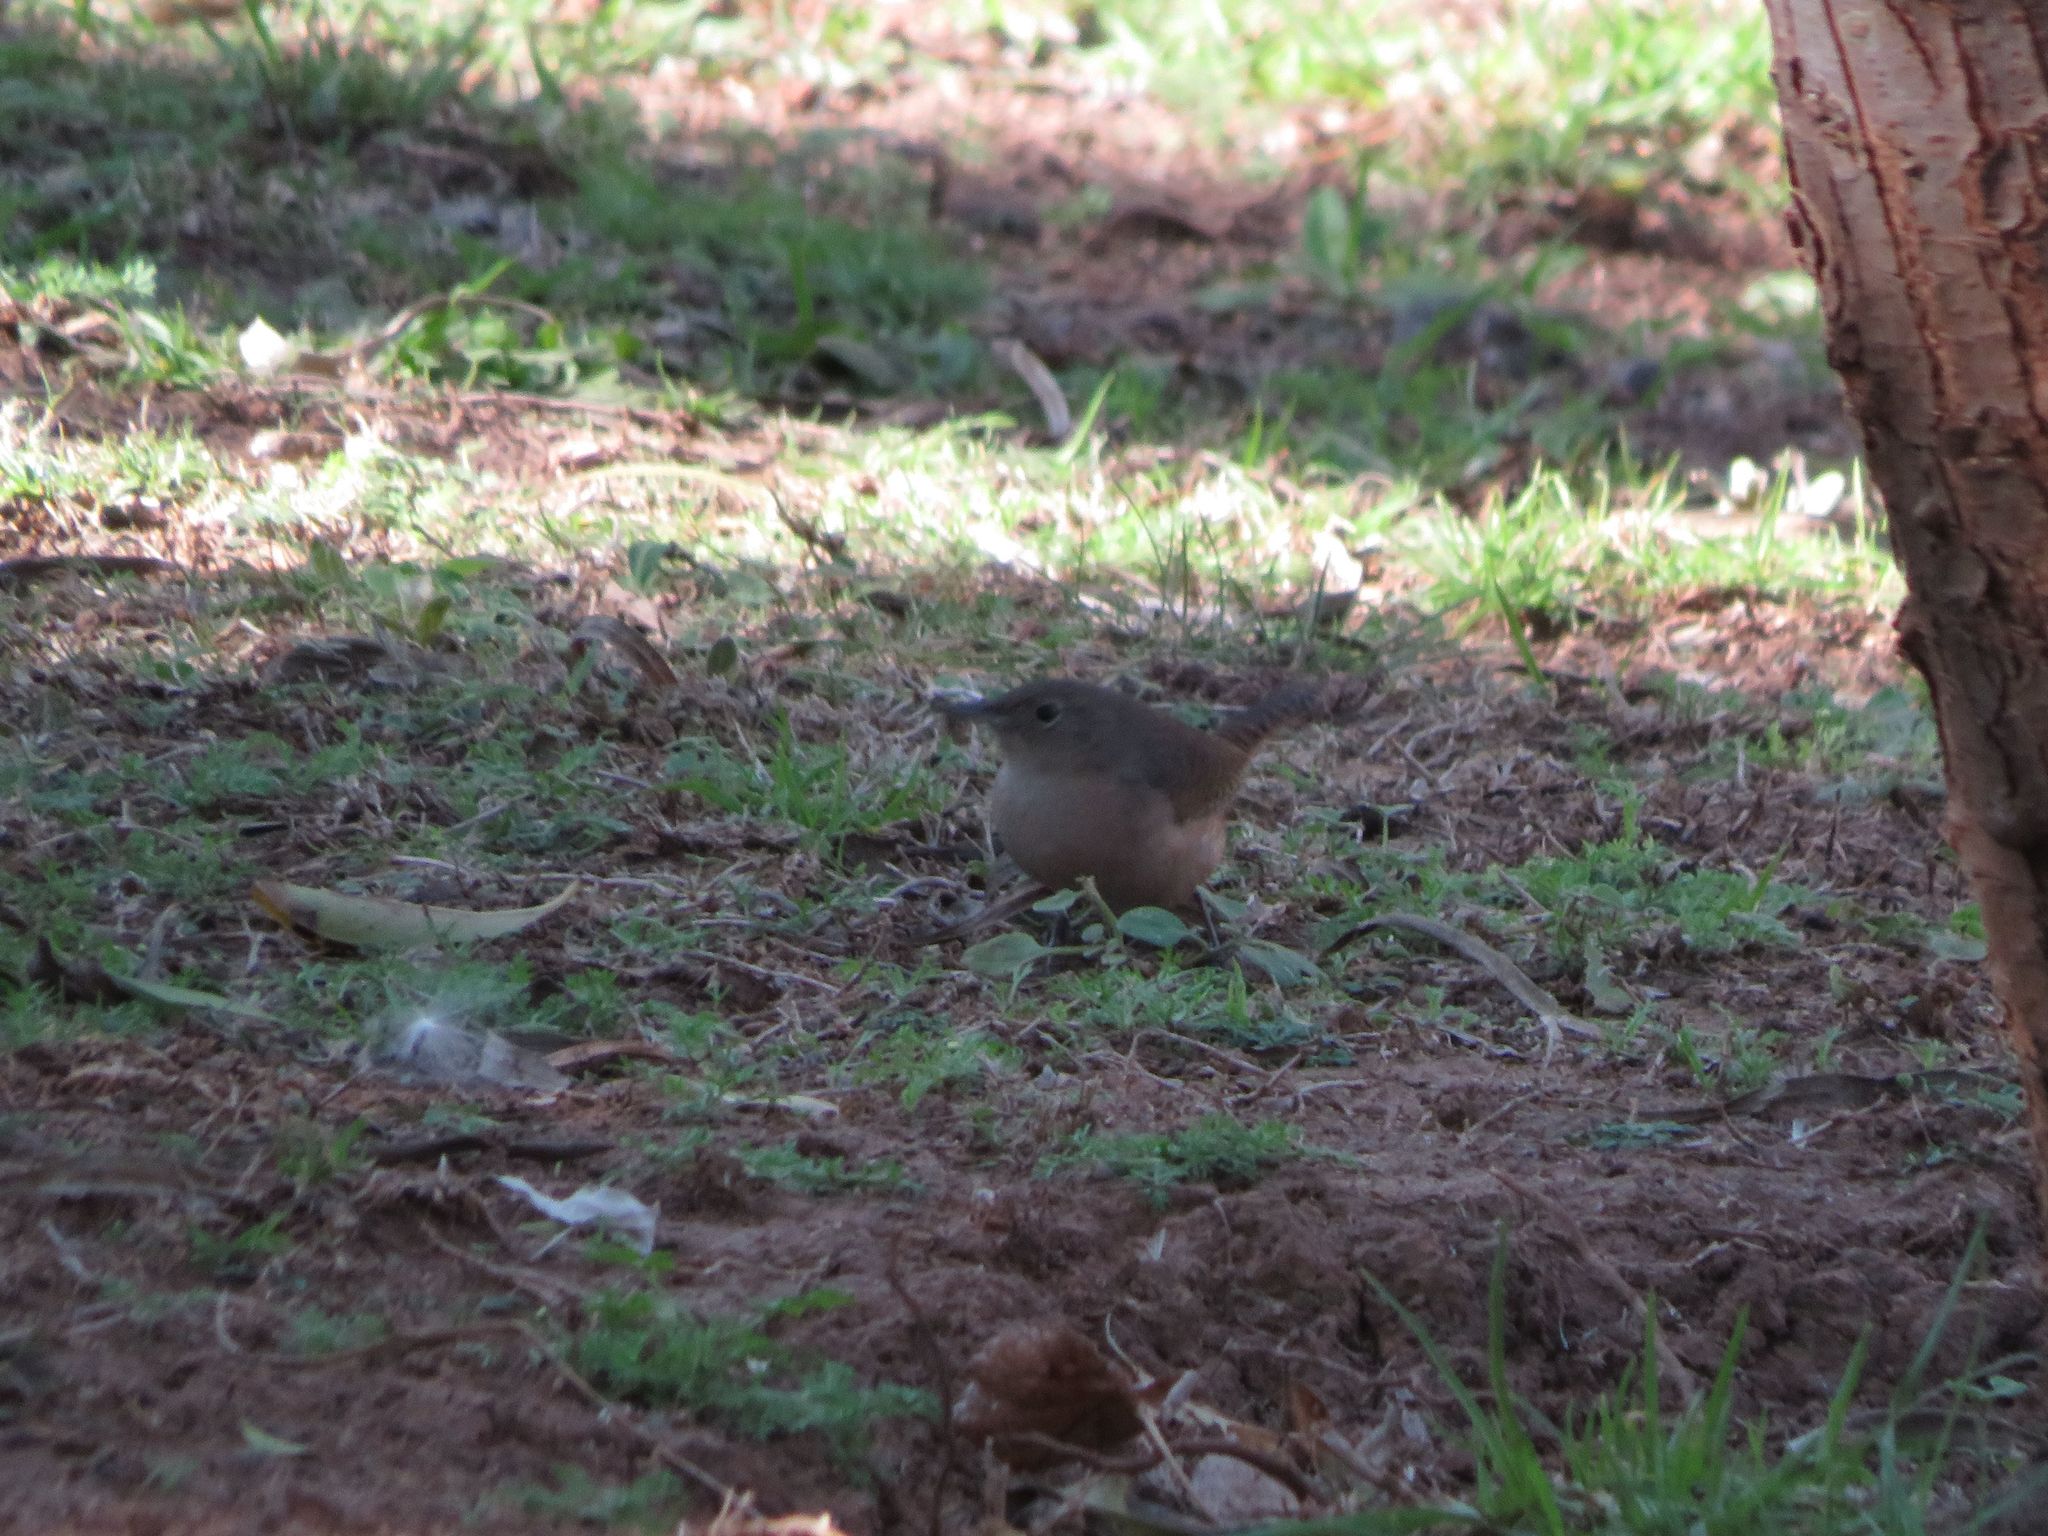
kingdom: Animalia
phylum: Chordata
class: Aves
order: Passeriformes
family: Troglodytidae
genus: Troglodytes
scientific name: Troglodytes aedon
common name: House wren
